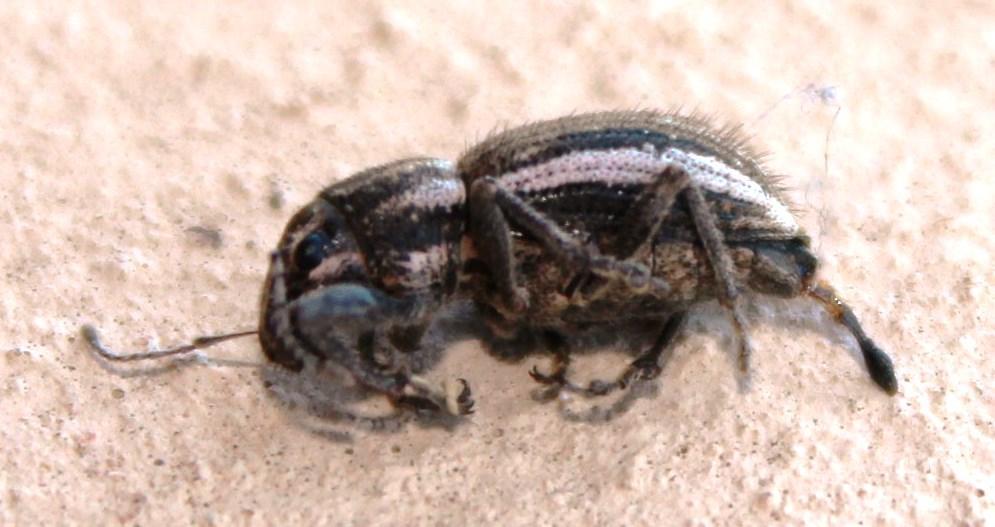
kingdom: Animalia
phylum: Arthropoda
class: Insecta
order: Coleoptera
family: Curculionidae
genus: Naupactus
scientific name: Naupactus leucoloma
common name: Whitefringed beetle
